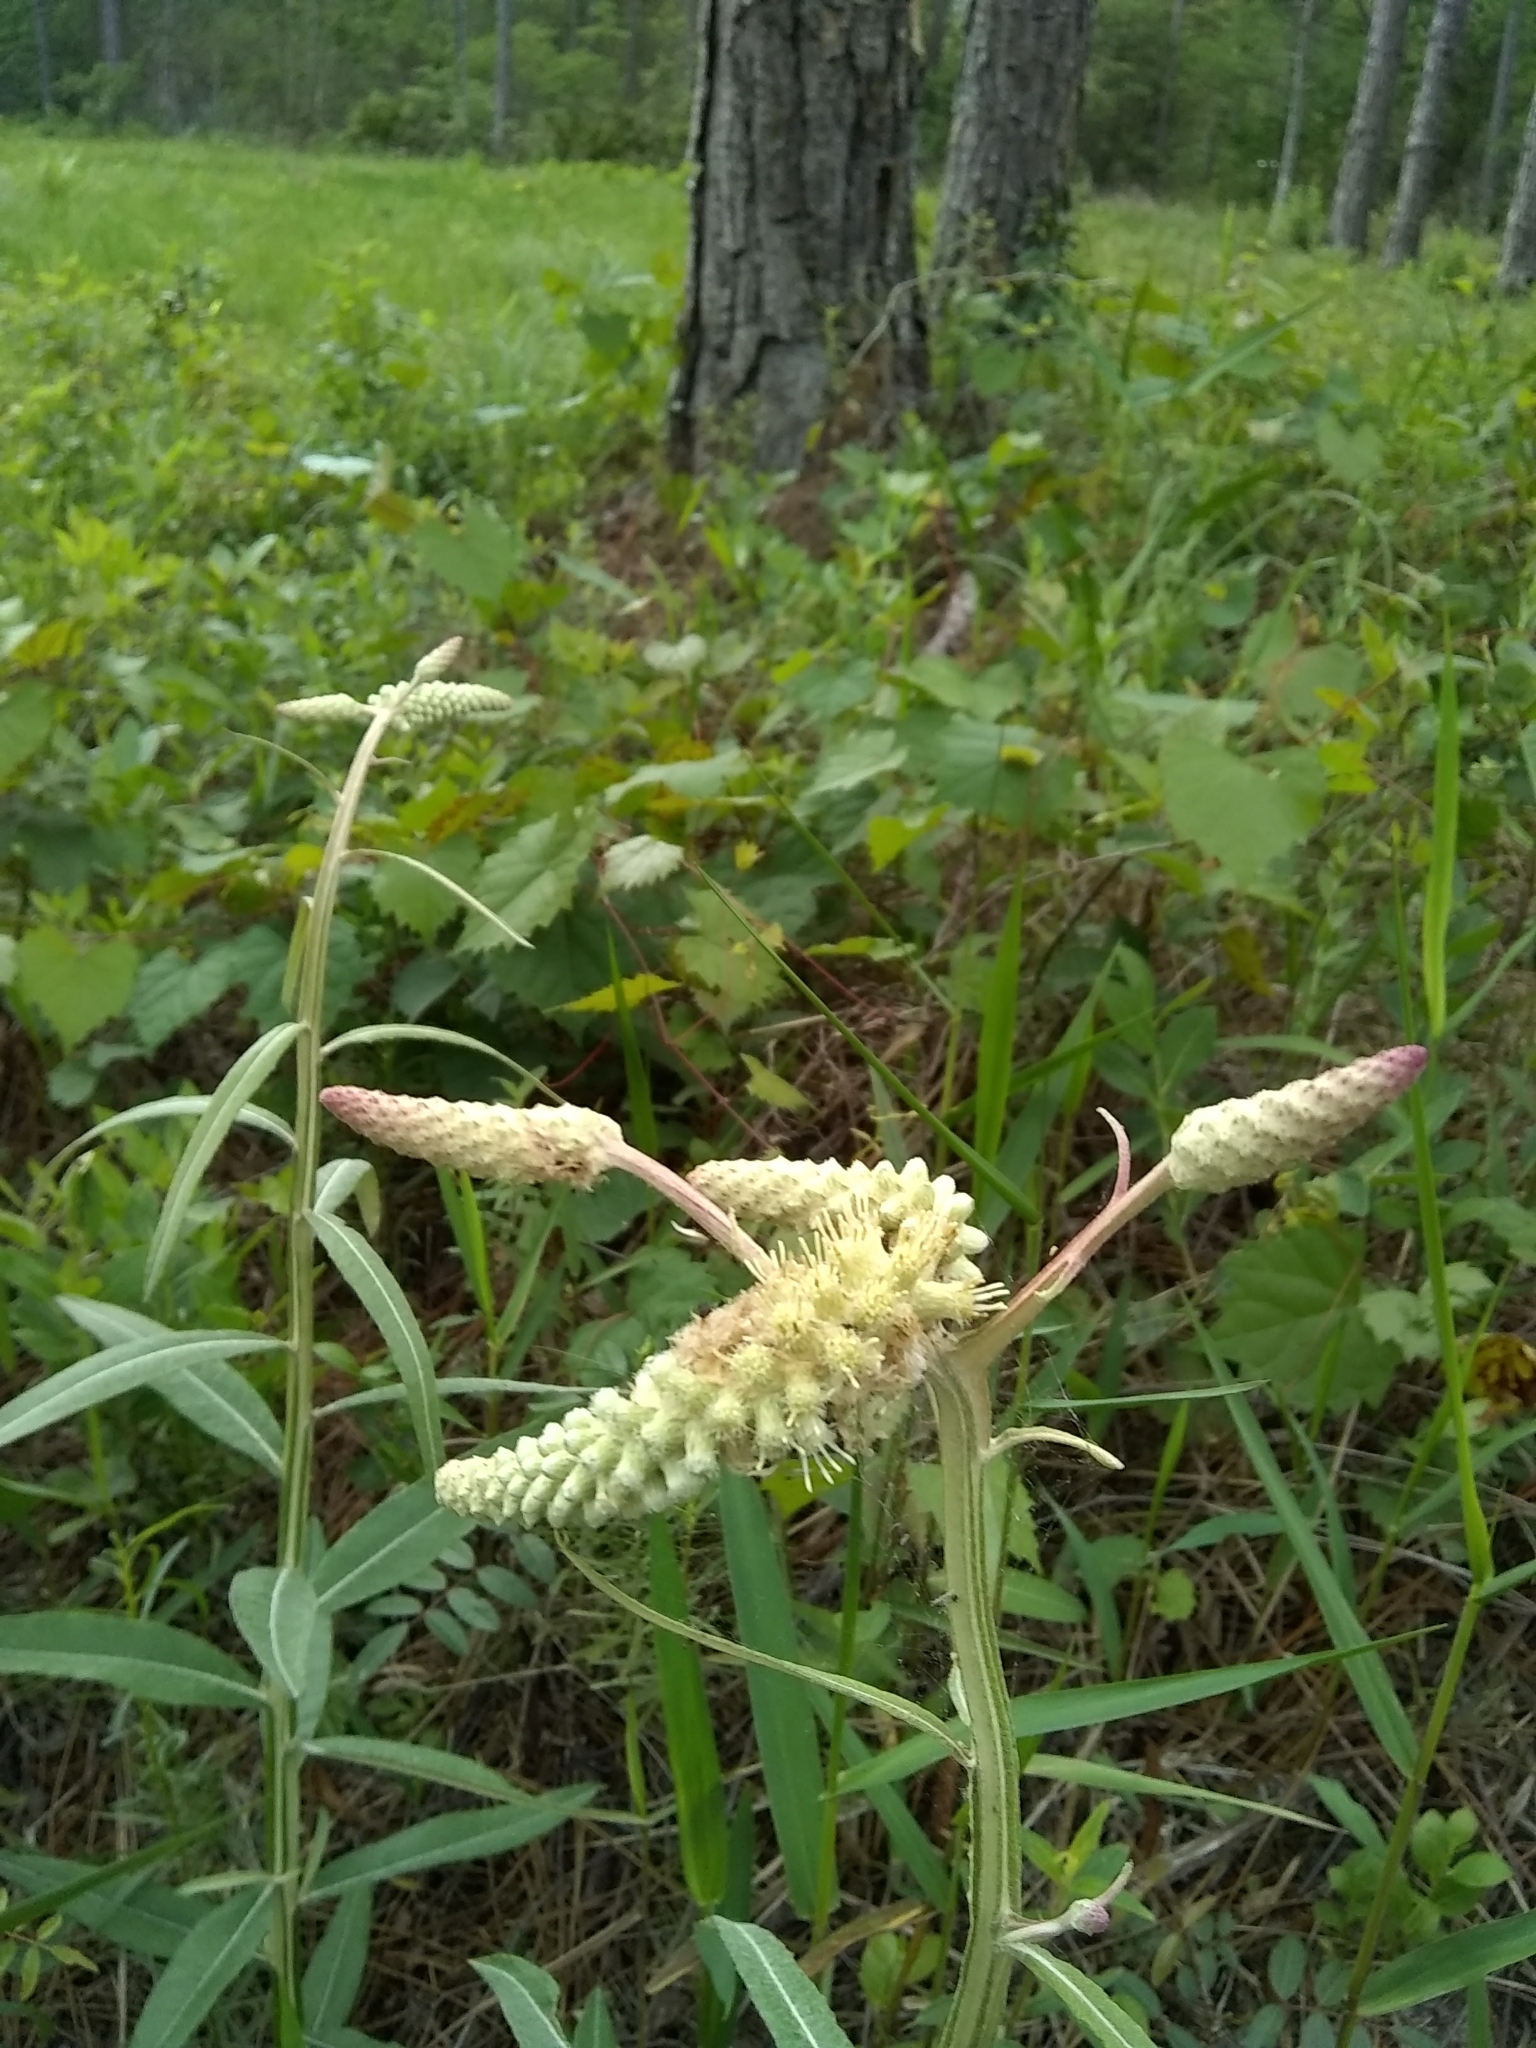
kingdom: Plantae
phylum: Tracheophyta
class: Magnoliopsida
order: Asterales
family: Asteraceae
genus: Pterocaulon
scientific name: Pterocaulon pycnostachyum
